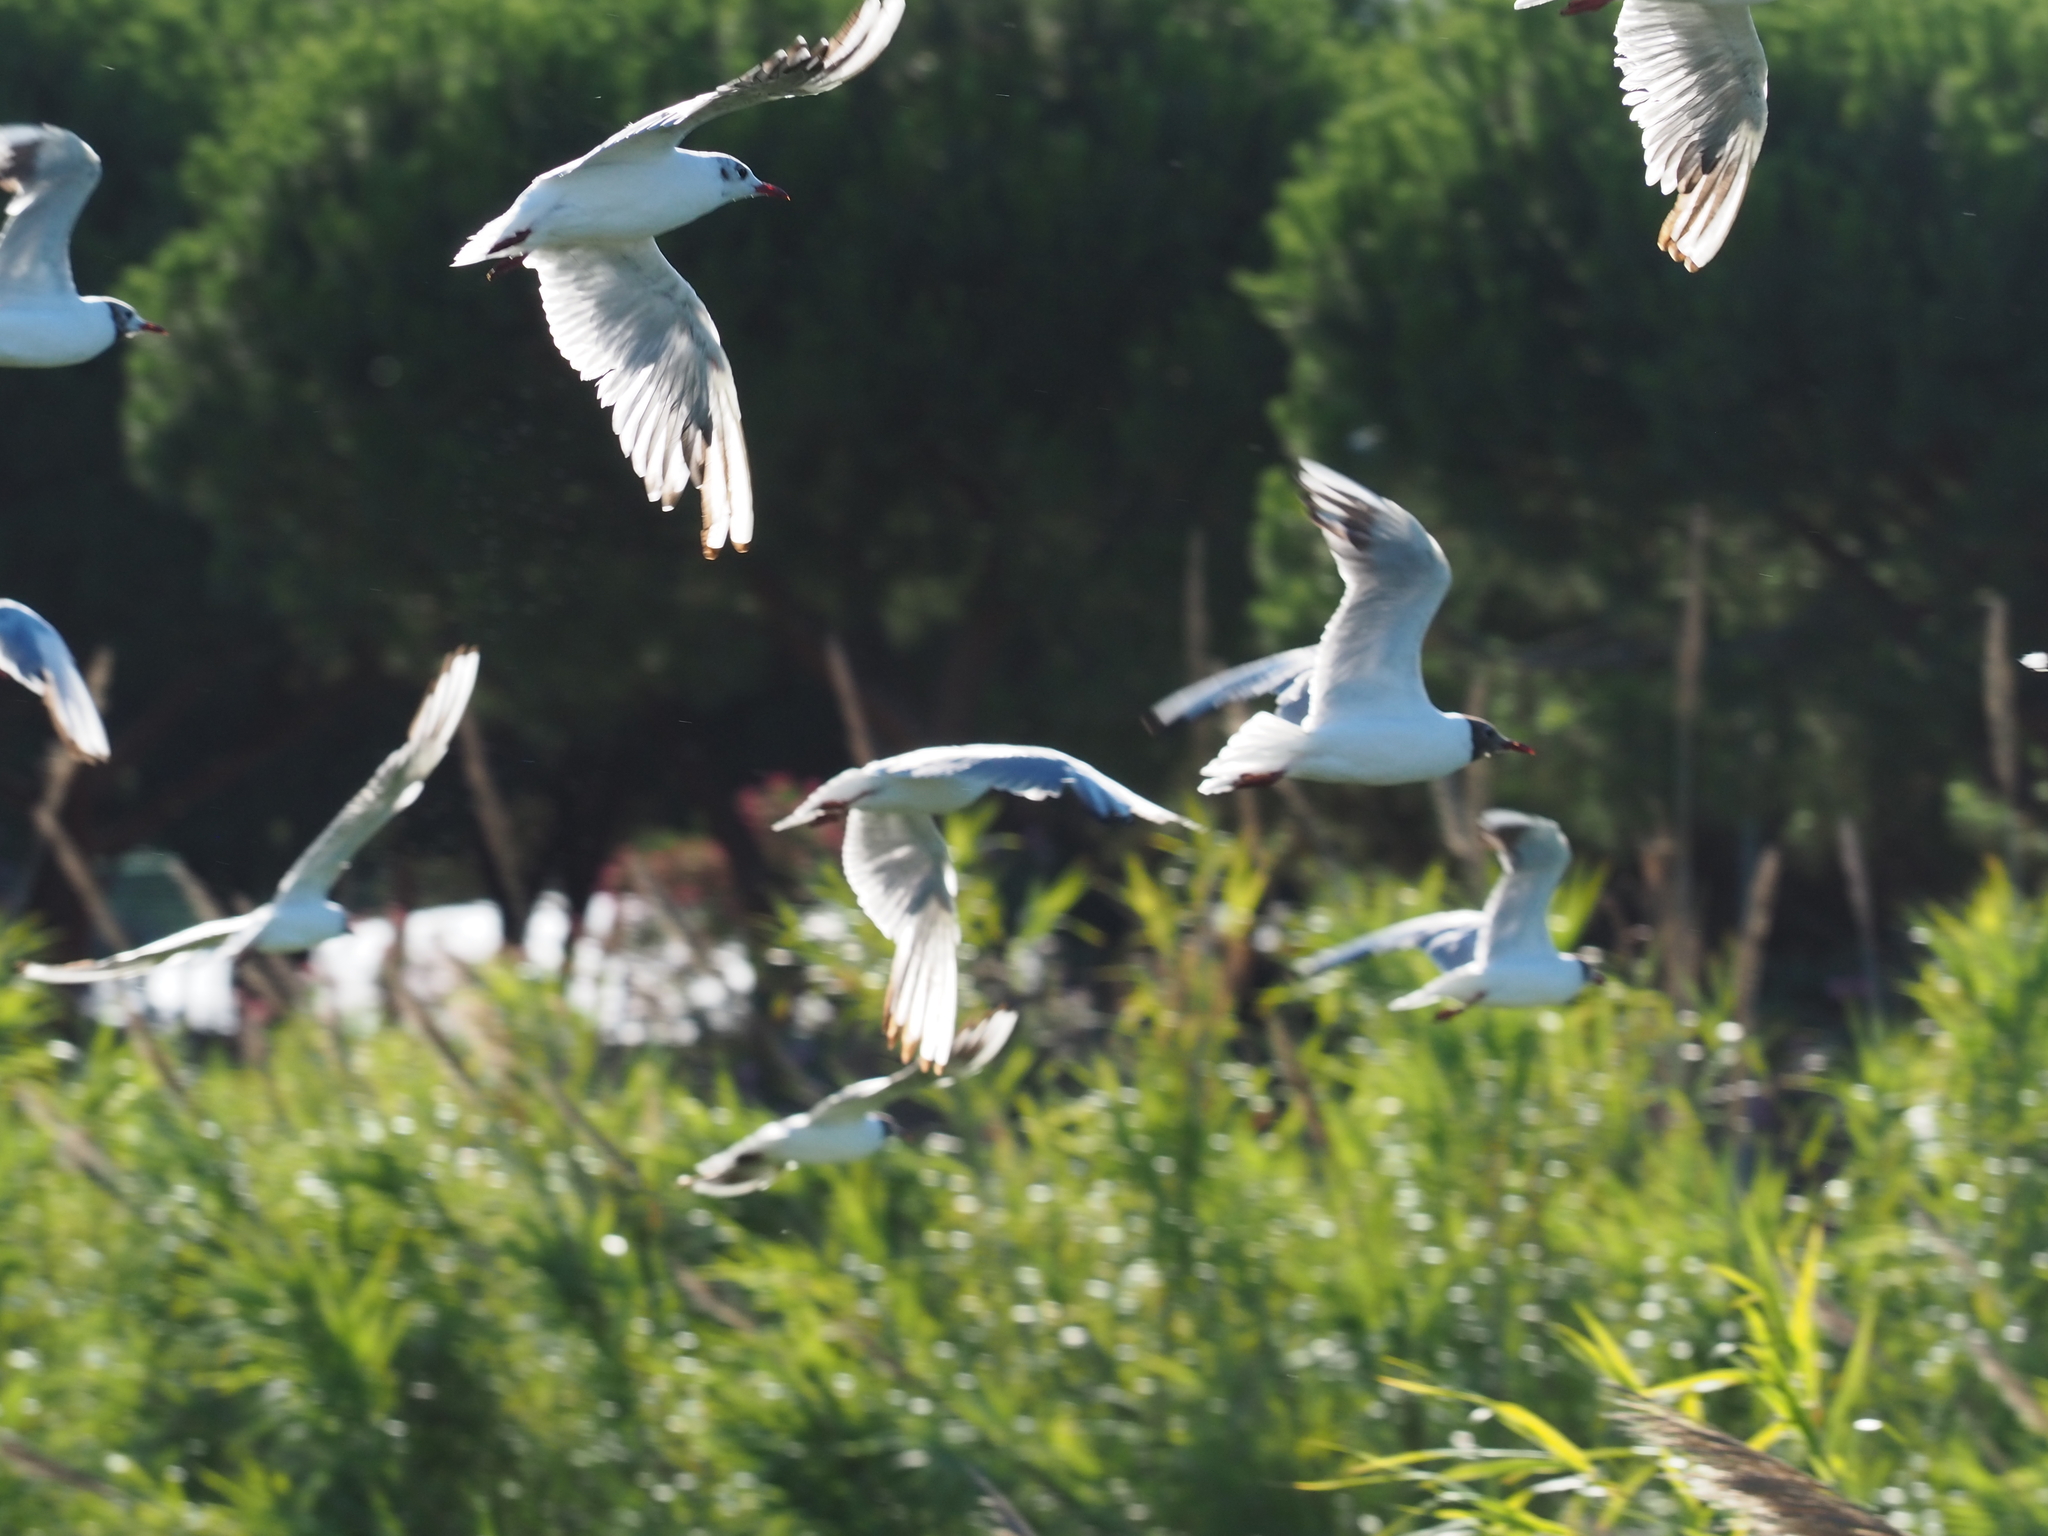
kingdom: Animalia
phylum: Chordata
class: Aves
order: Charadriiformes
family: Laridae
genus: Chroicocephalus
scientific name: Chroicocephalus ridibundus
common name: Black-headed gull
